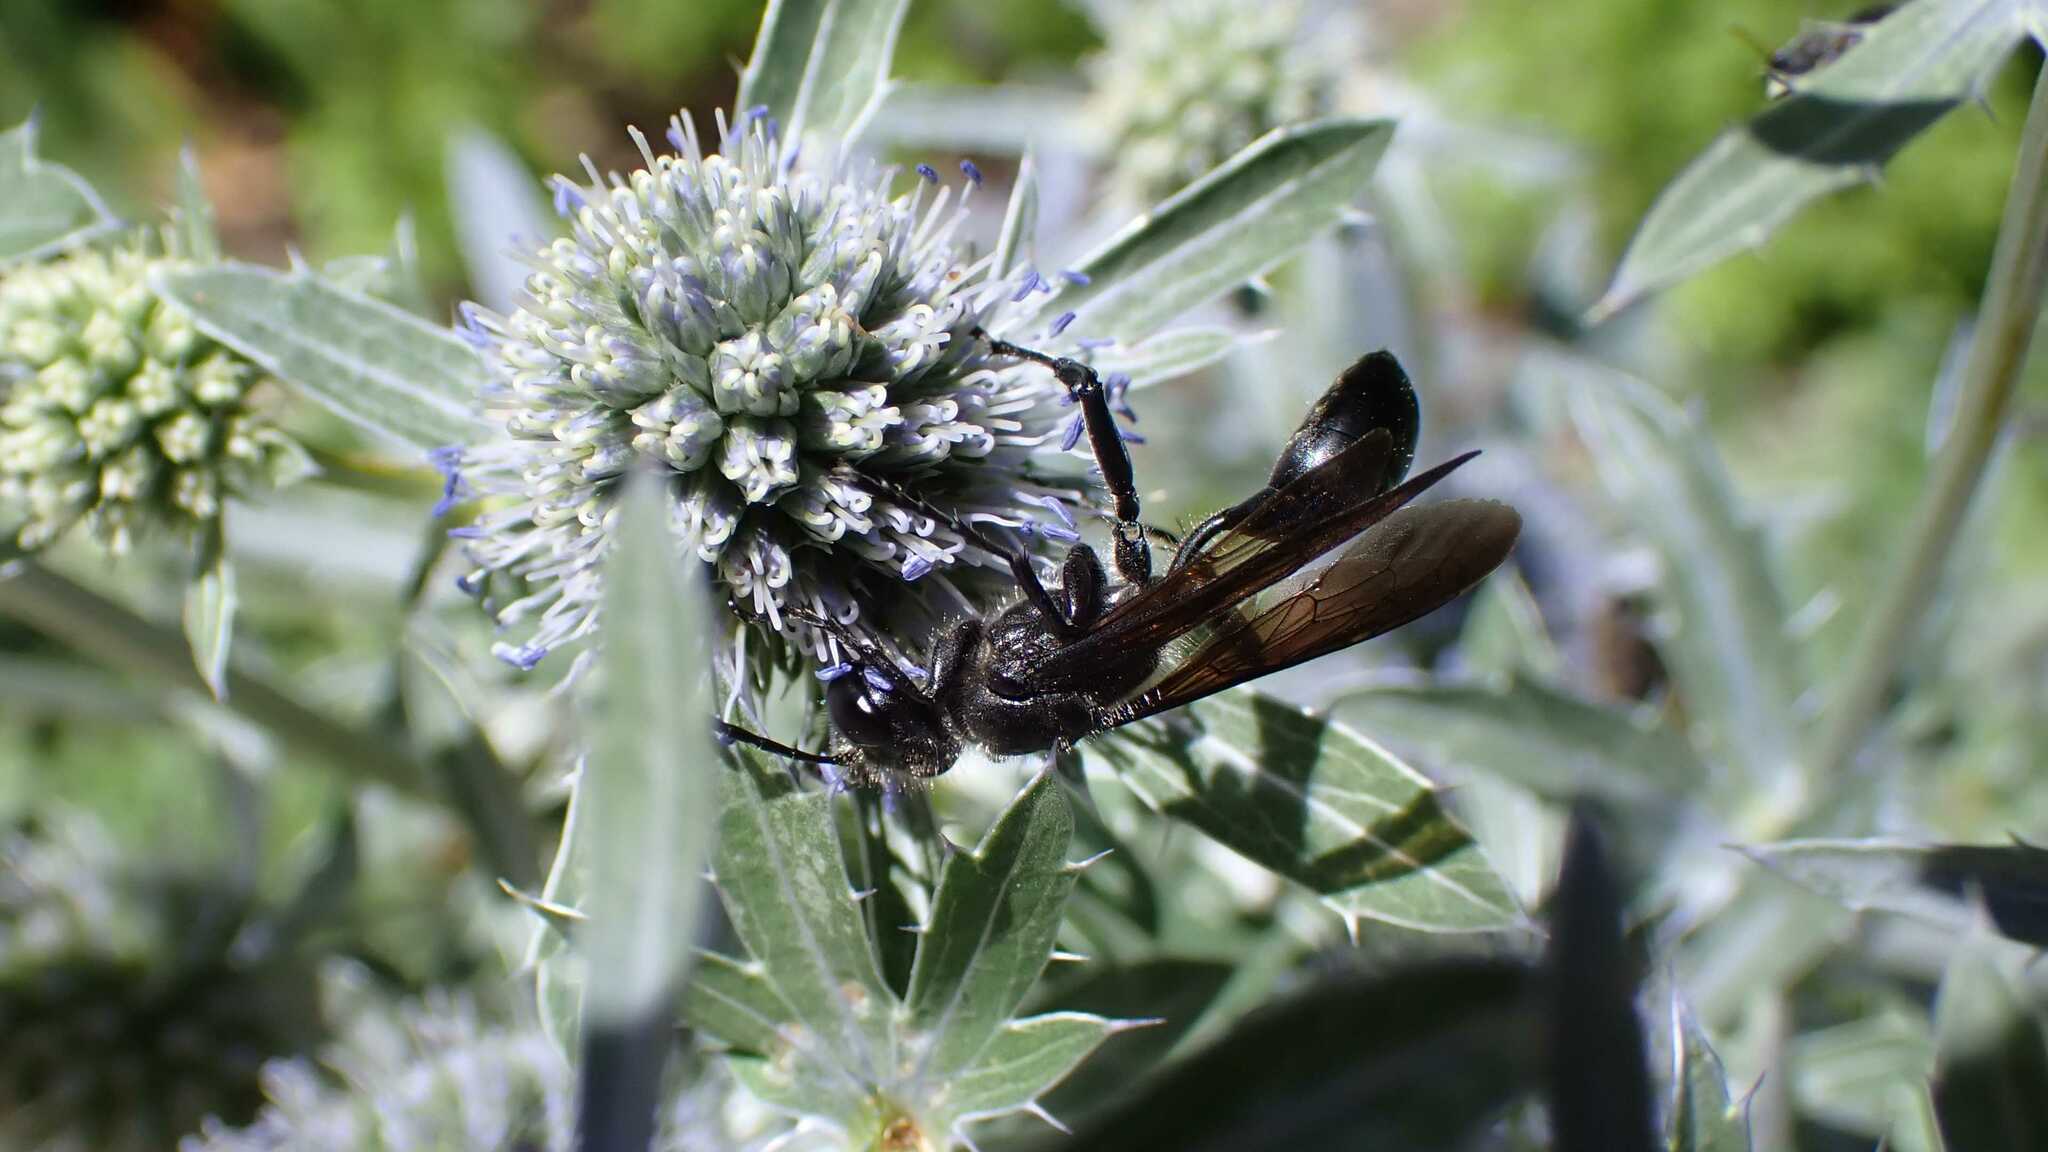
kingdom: Animalia
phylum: Arthropoda
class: Insecta
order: Hymenoptera
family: Sphecidae
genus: Isodontia
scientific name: Isodontia mexicana
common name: Mud dauber
